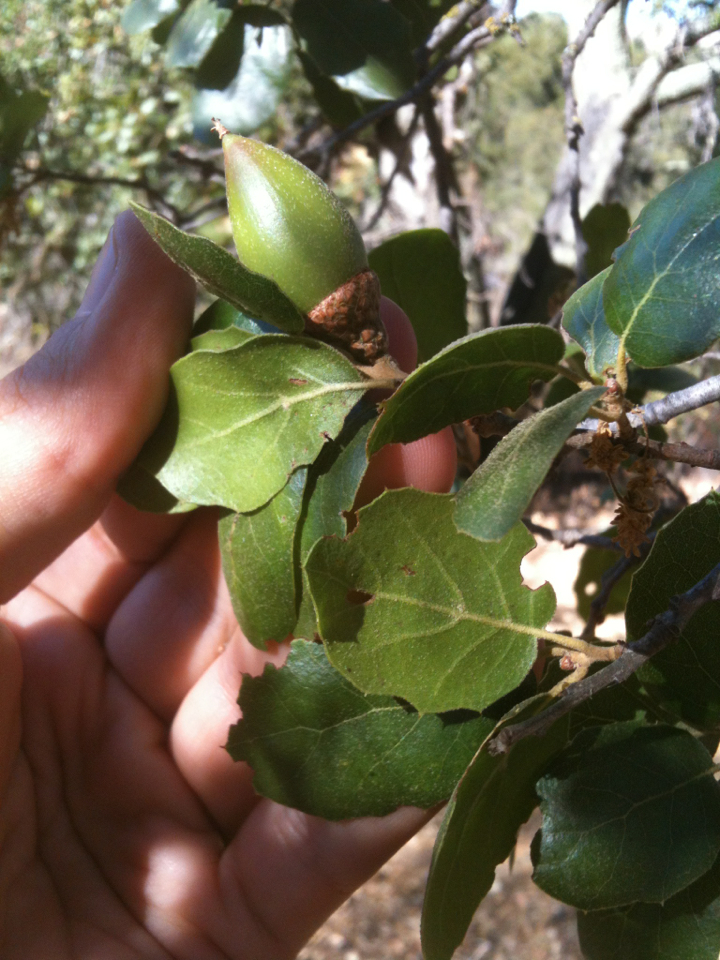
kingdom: Plantae
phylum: Tracheophyta
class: Magnoliopsida
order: Fagales
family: Fagaceae
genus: Quercus
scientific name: Quercus agrifolia
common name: California live oak
